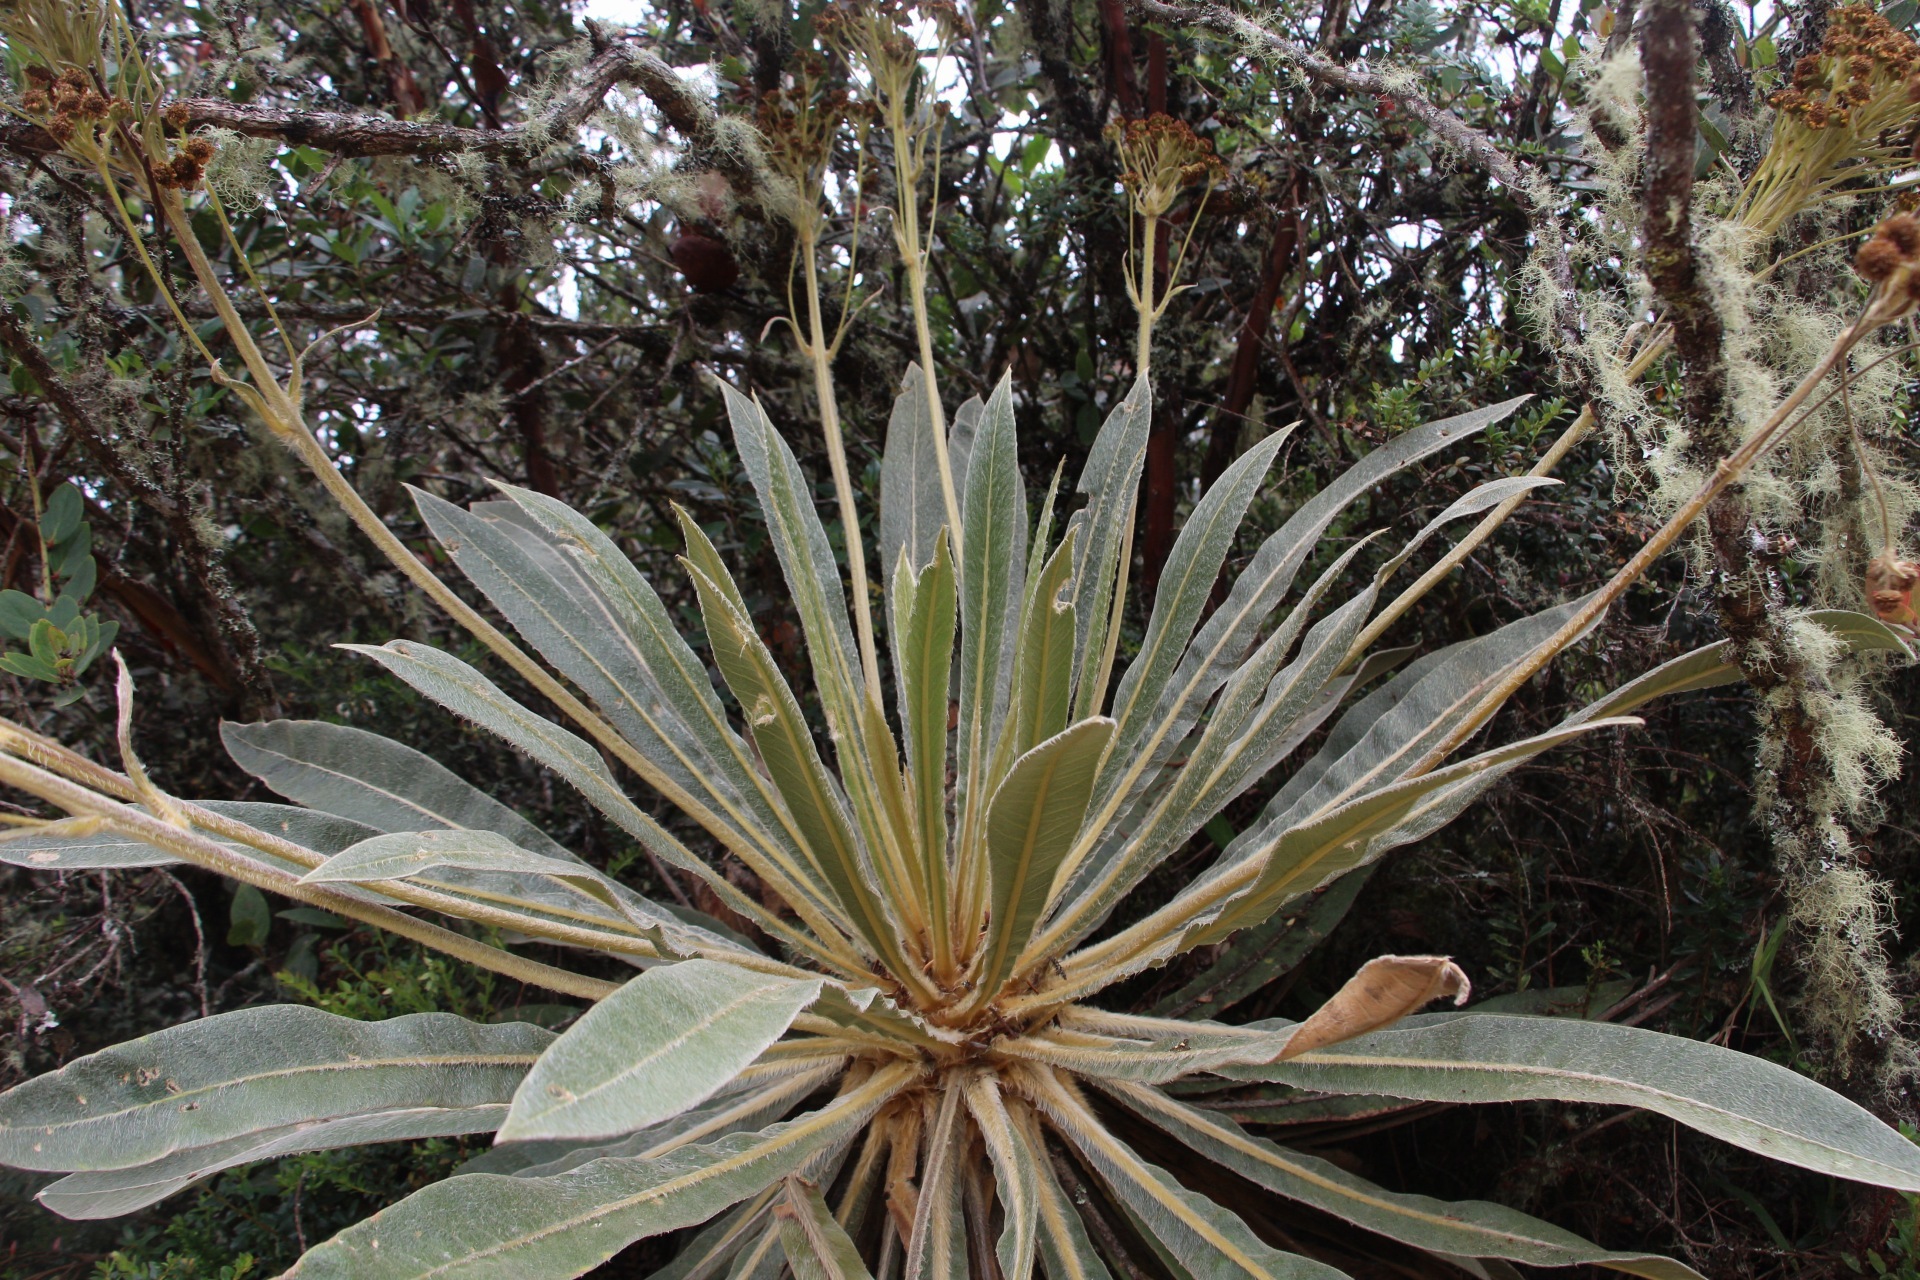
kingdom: Plantae
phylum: Tracheophyta
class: Magnoliopsida
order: Asterales
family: Asteraceae
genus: Espeletia
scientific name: Espeletia corymbosa
